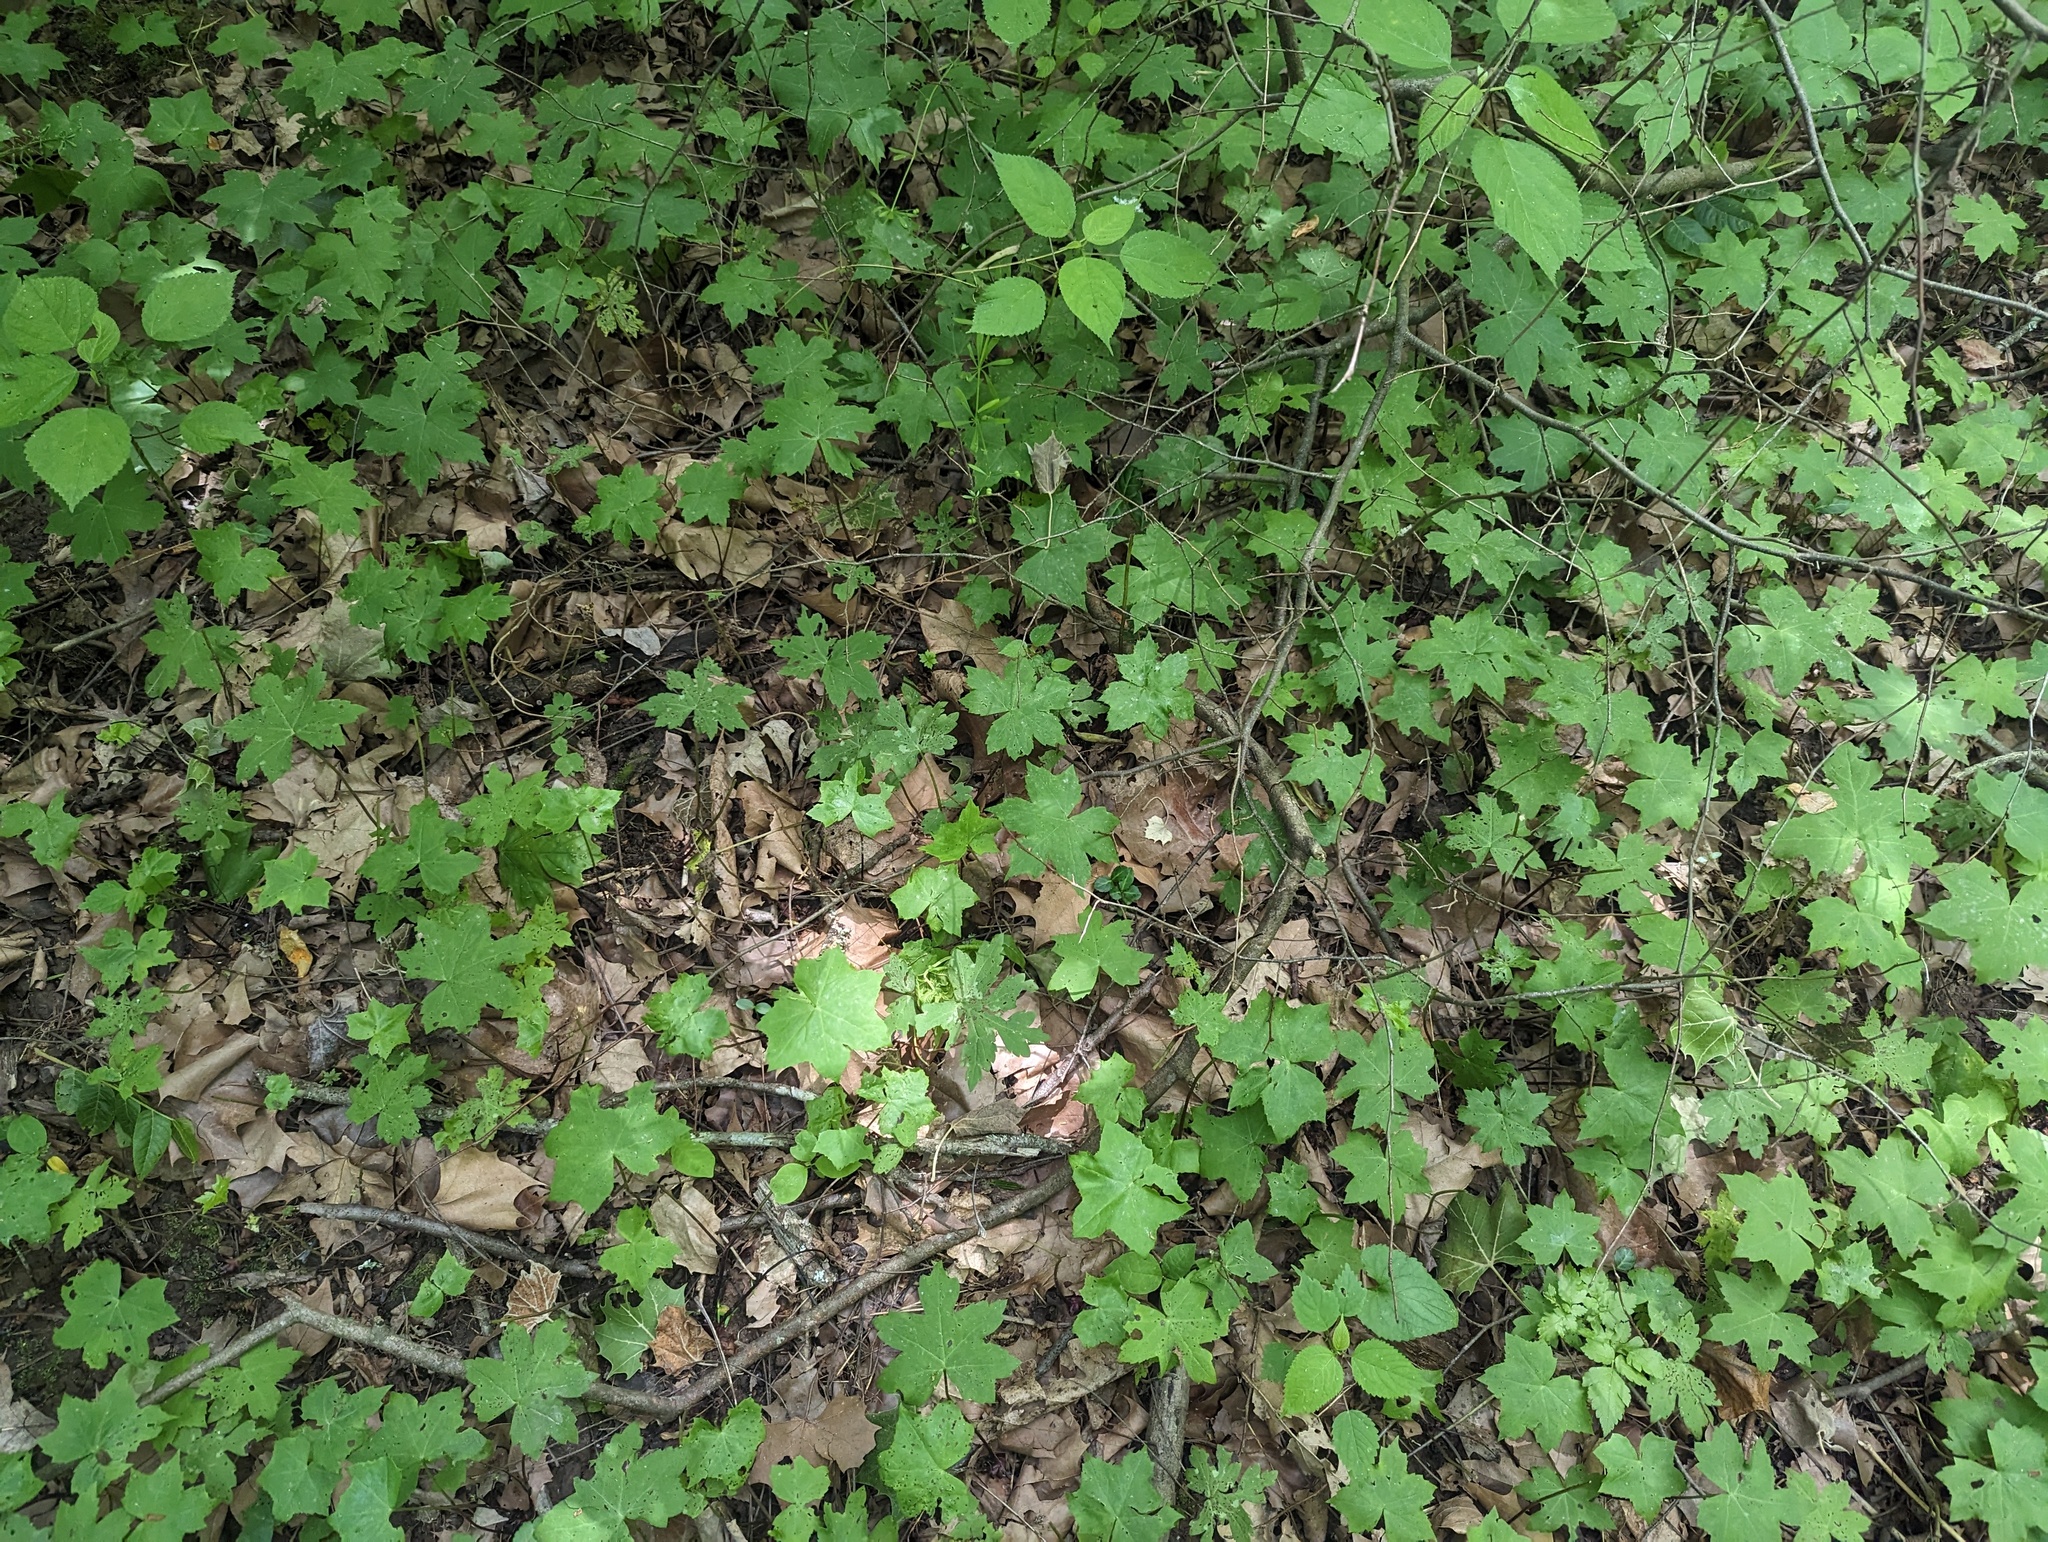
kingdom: Plantae
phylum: Tracheophyta
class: Magnoliopsida
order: Boraginales
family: Hydrophyllaceae
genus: Hydrophyllum
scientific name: Hydrophyllum canadense
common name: Canada waterleaf
